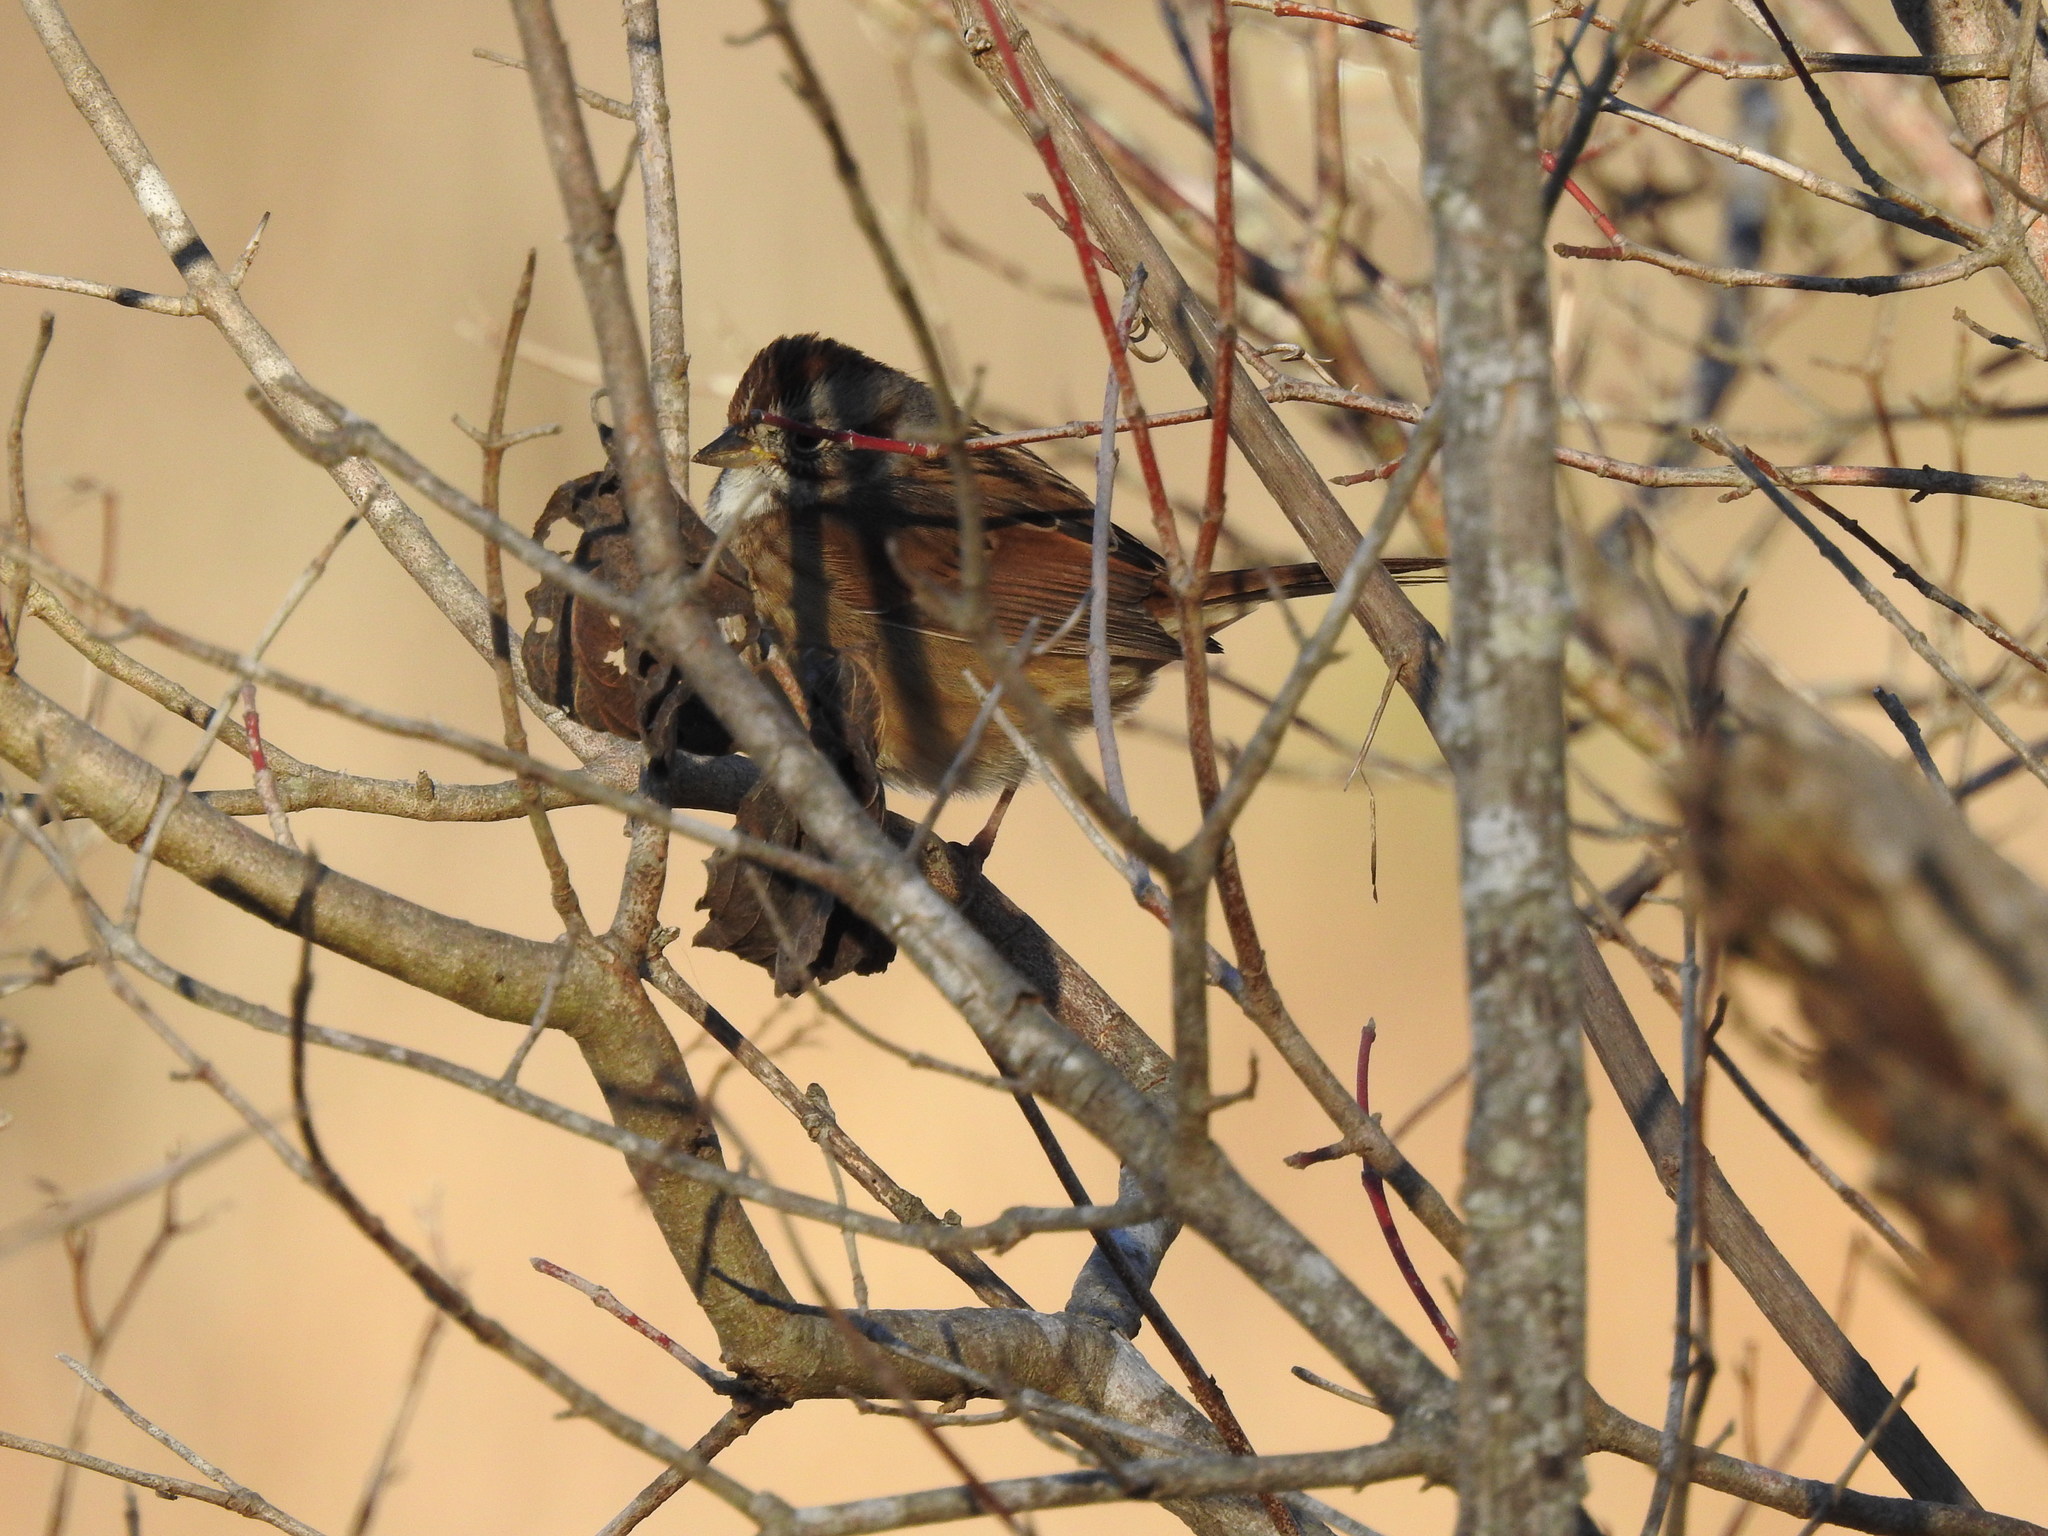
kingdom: Animalia
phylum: Chordata
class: Aves
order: Passeriformes
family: Passerellidae
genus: Melospiza
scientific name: Melospiza georgiana
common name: Swamp sparrow
